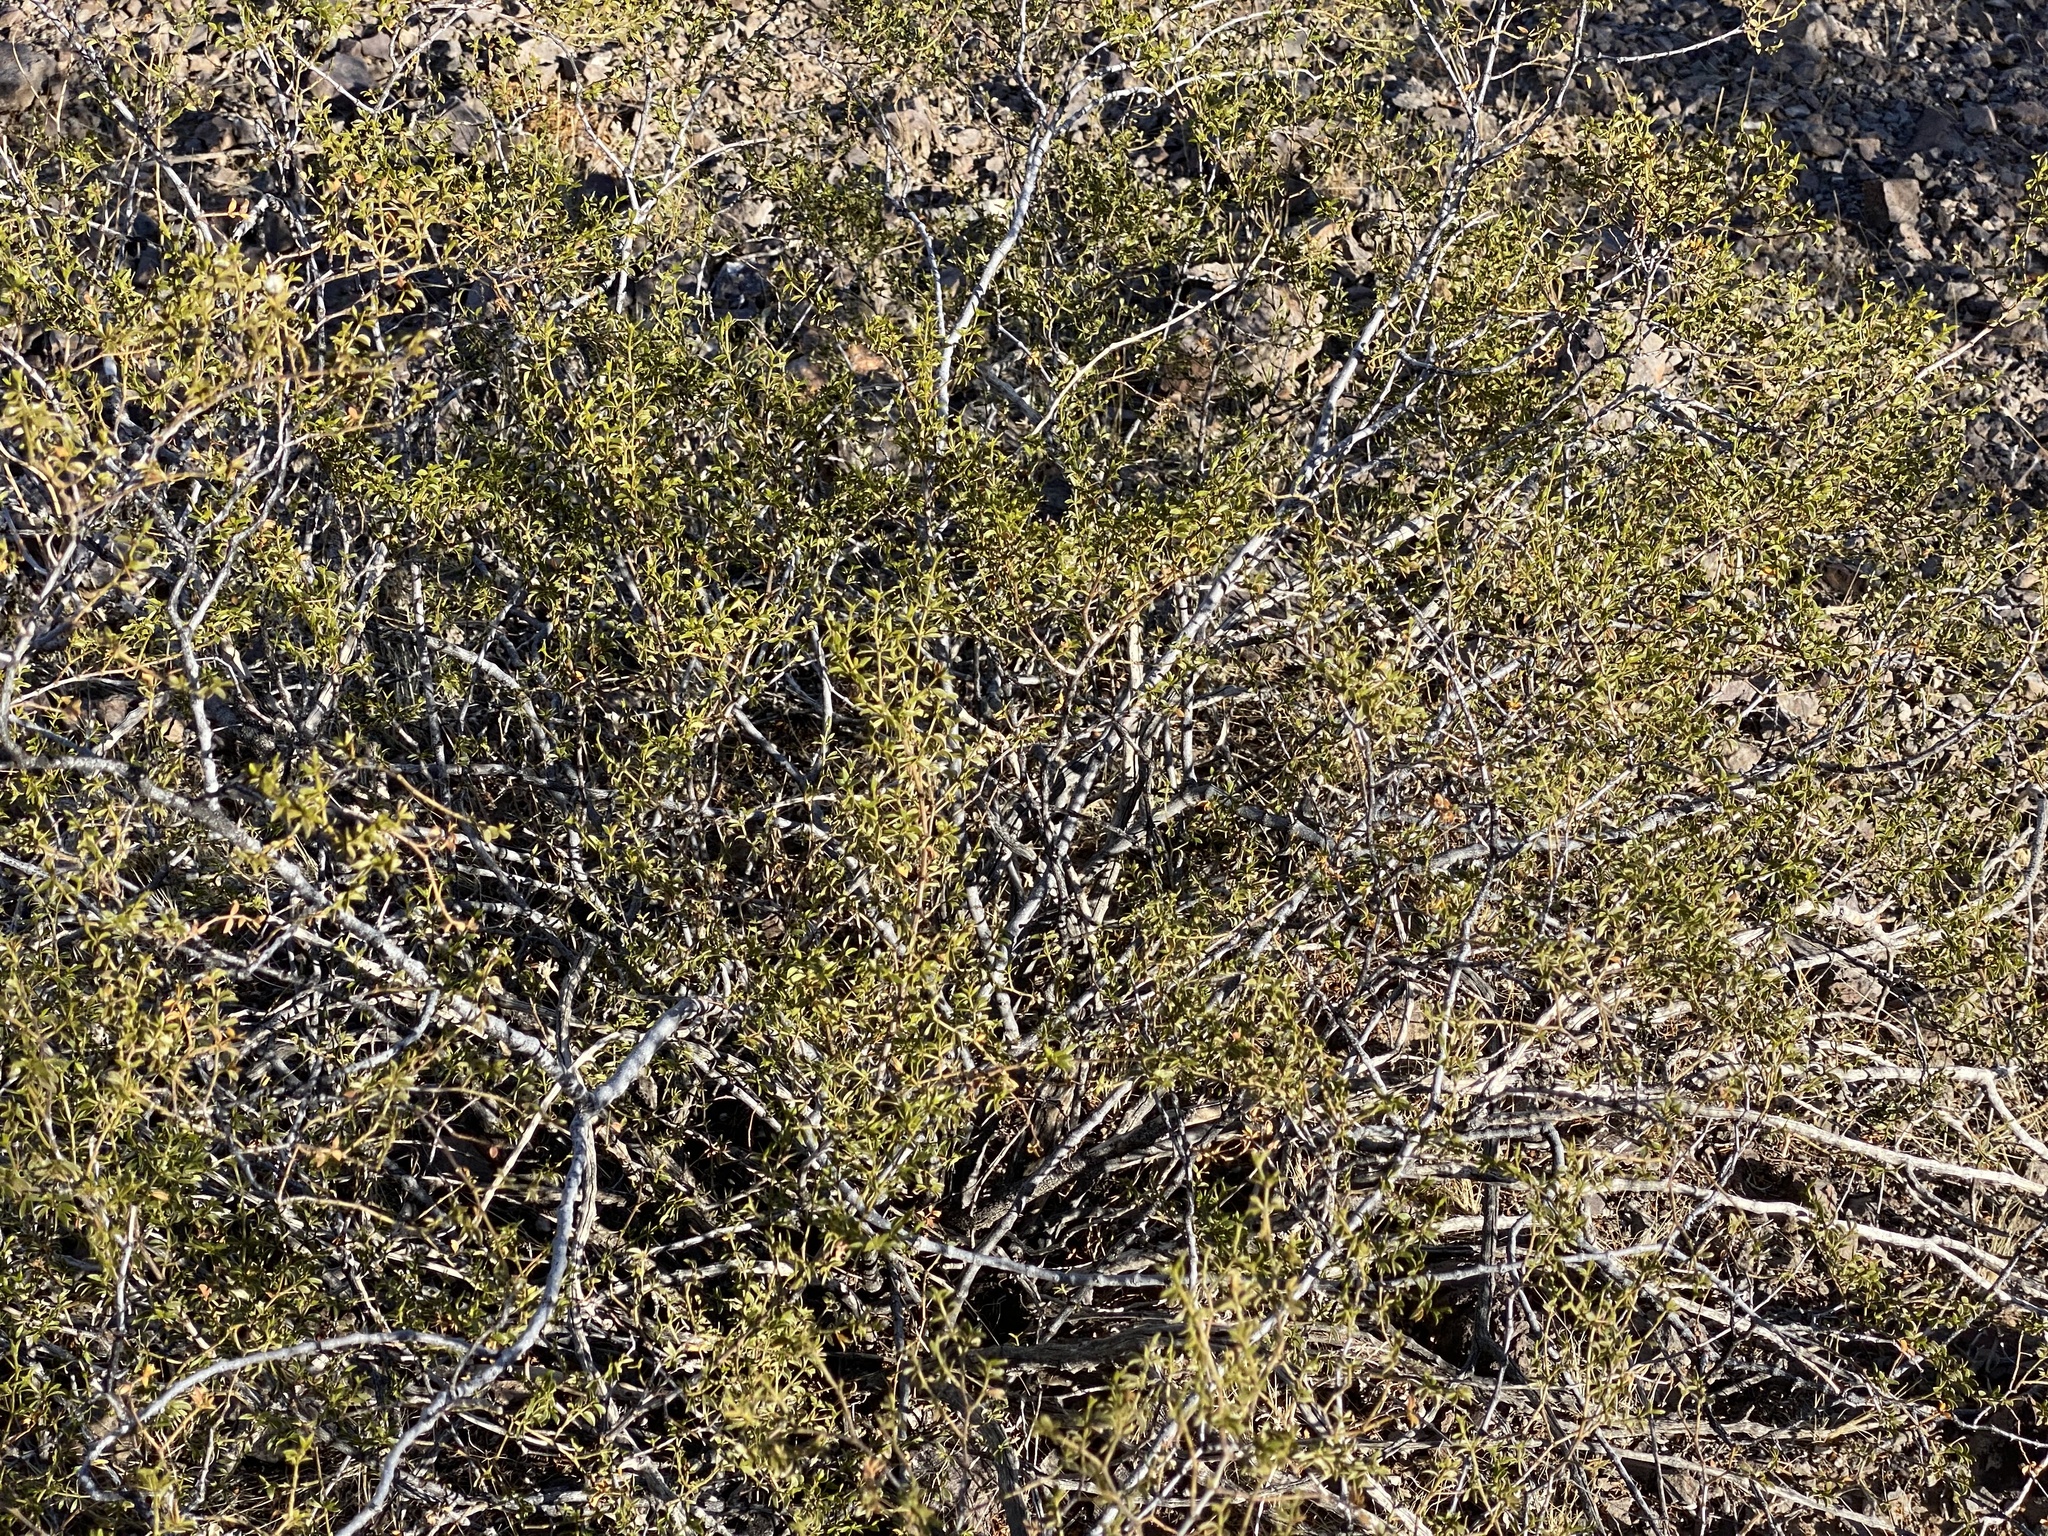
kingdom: Plantae
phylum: Tracheophyta
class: Magnoliopsida
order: Zygophyllales
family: Zygophyllaceae
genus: Larrea
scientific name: Larrea tridentata
